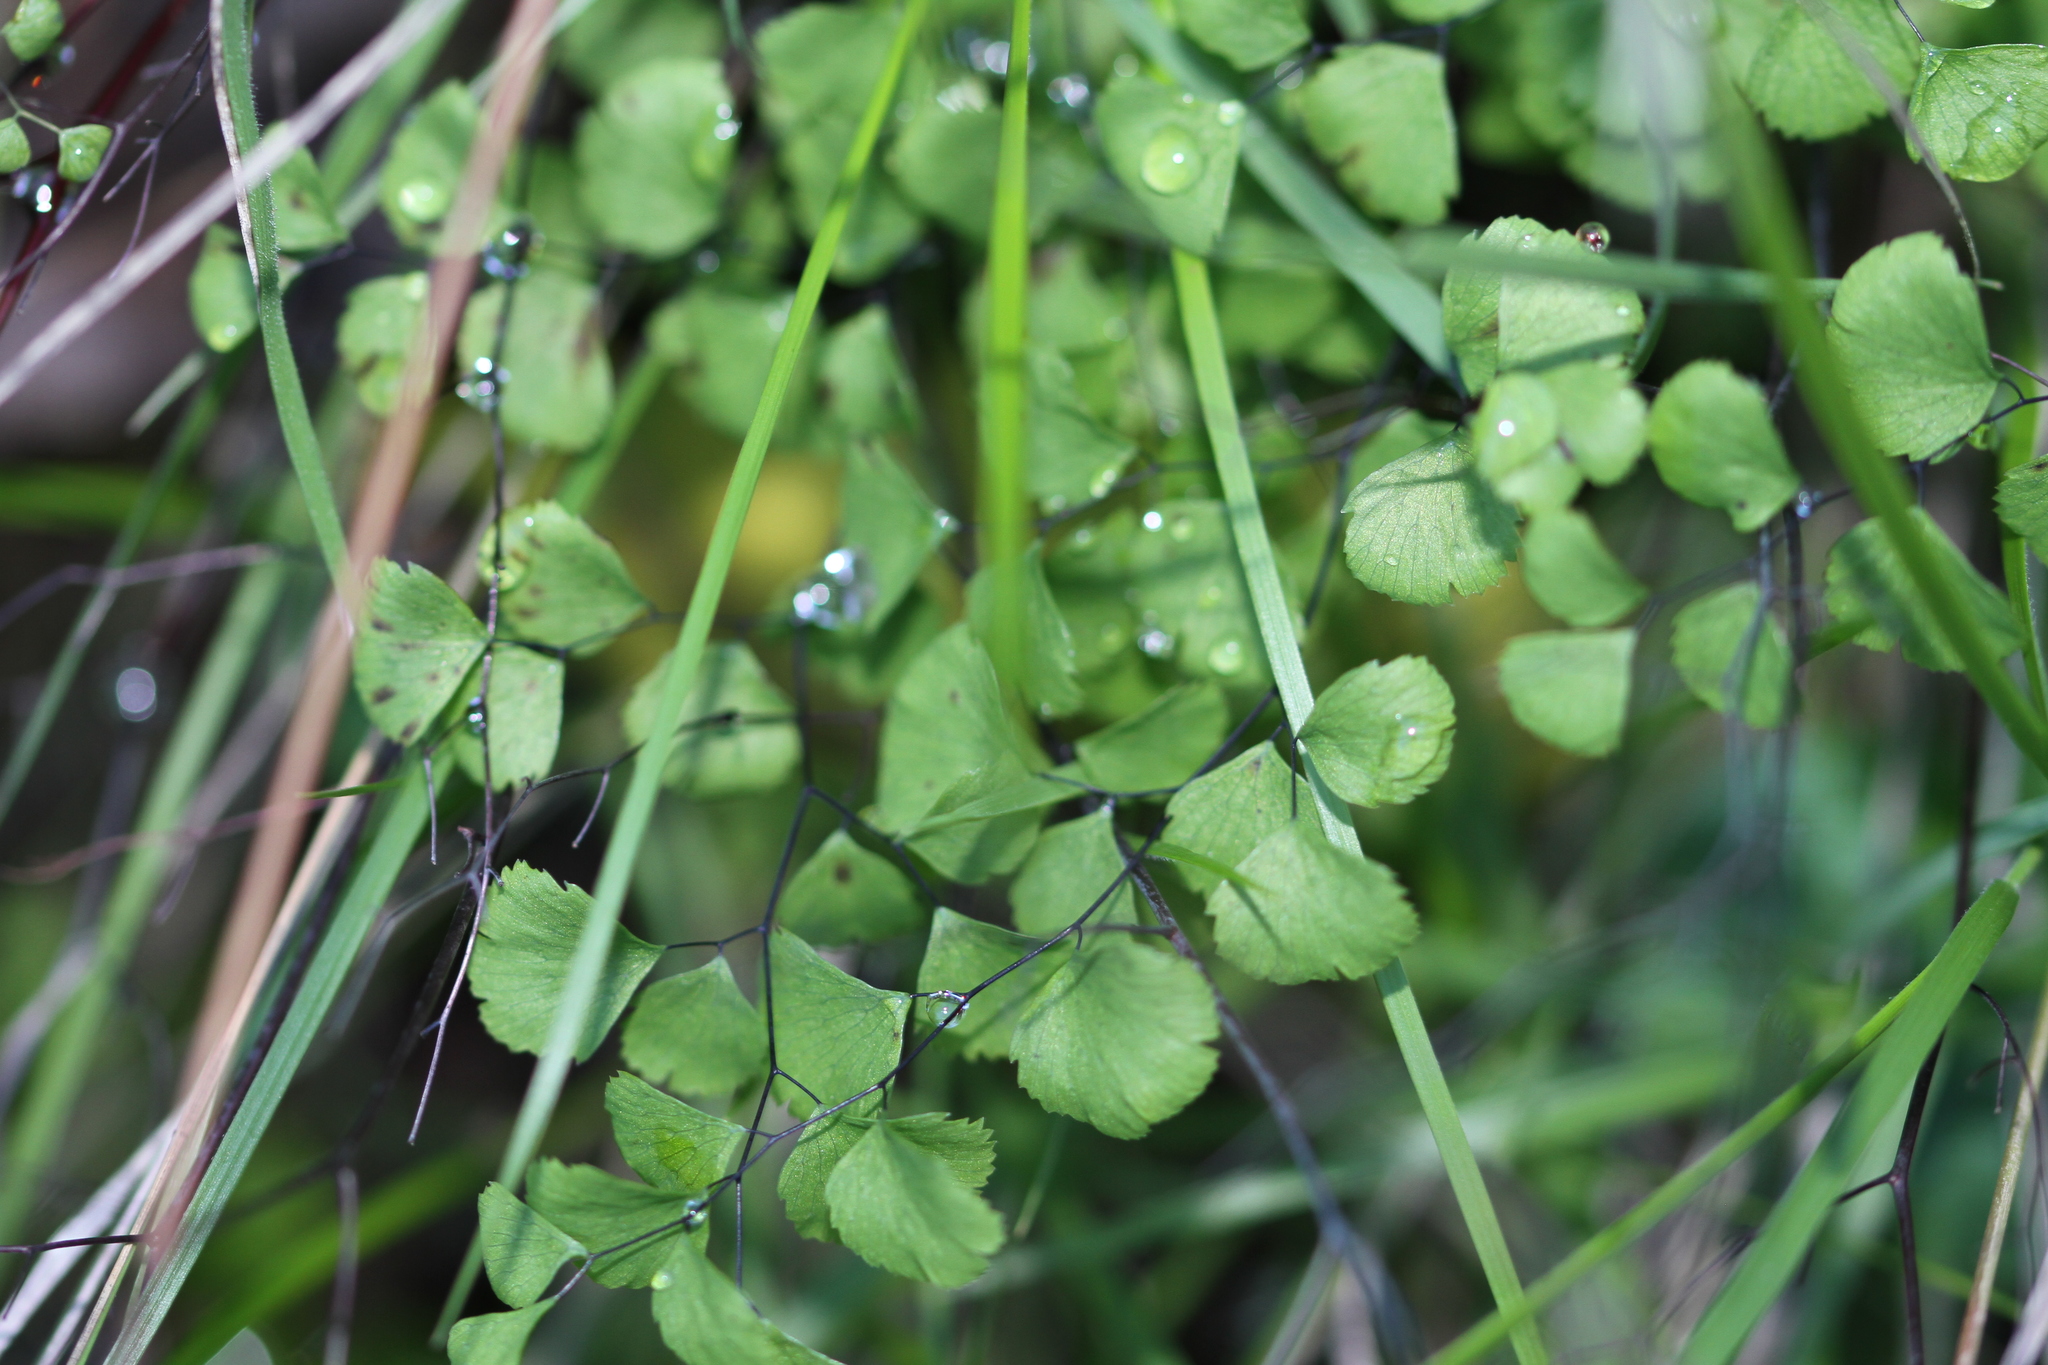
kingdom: Plantae
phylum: Tracheophyta
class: Polypodiopsida
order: Polypodiales
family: Pteridaceae
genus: Adiantum
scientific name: Adiantum jordanii
